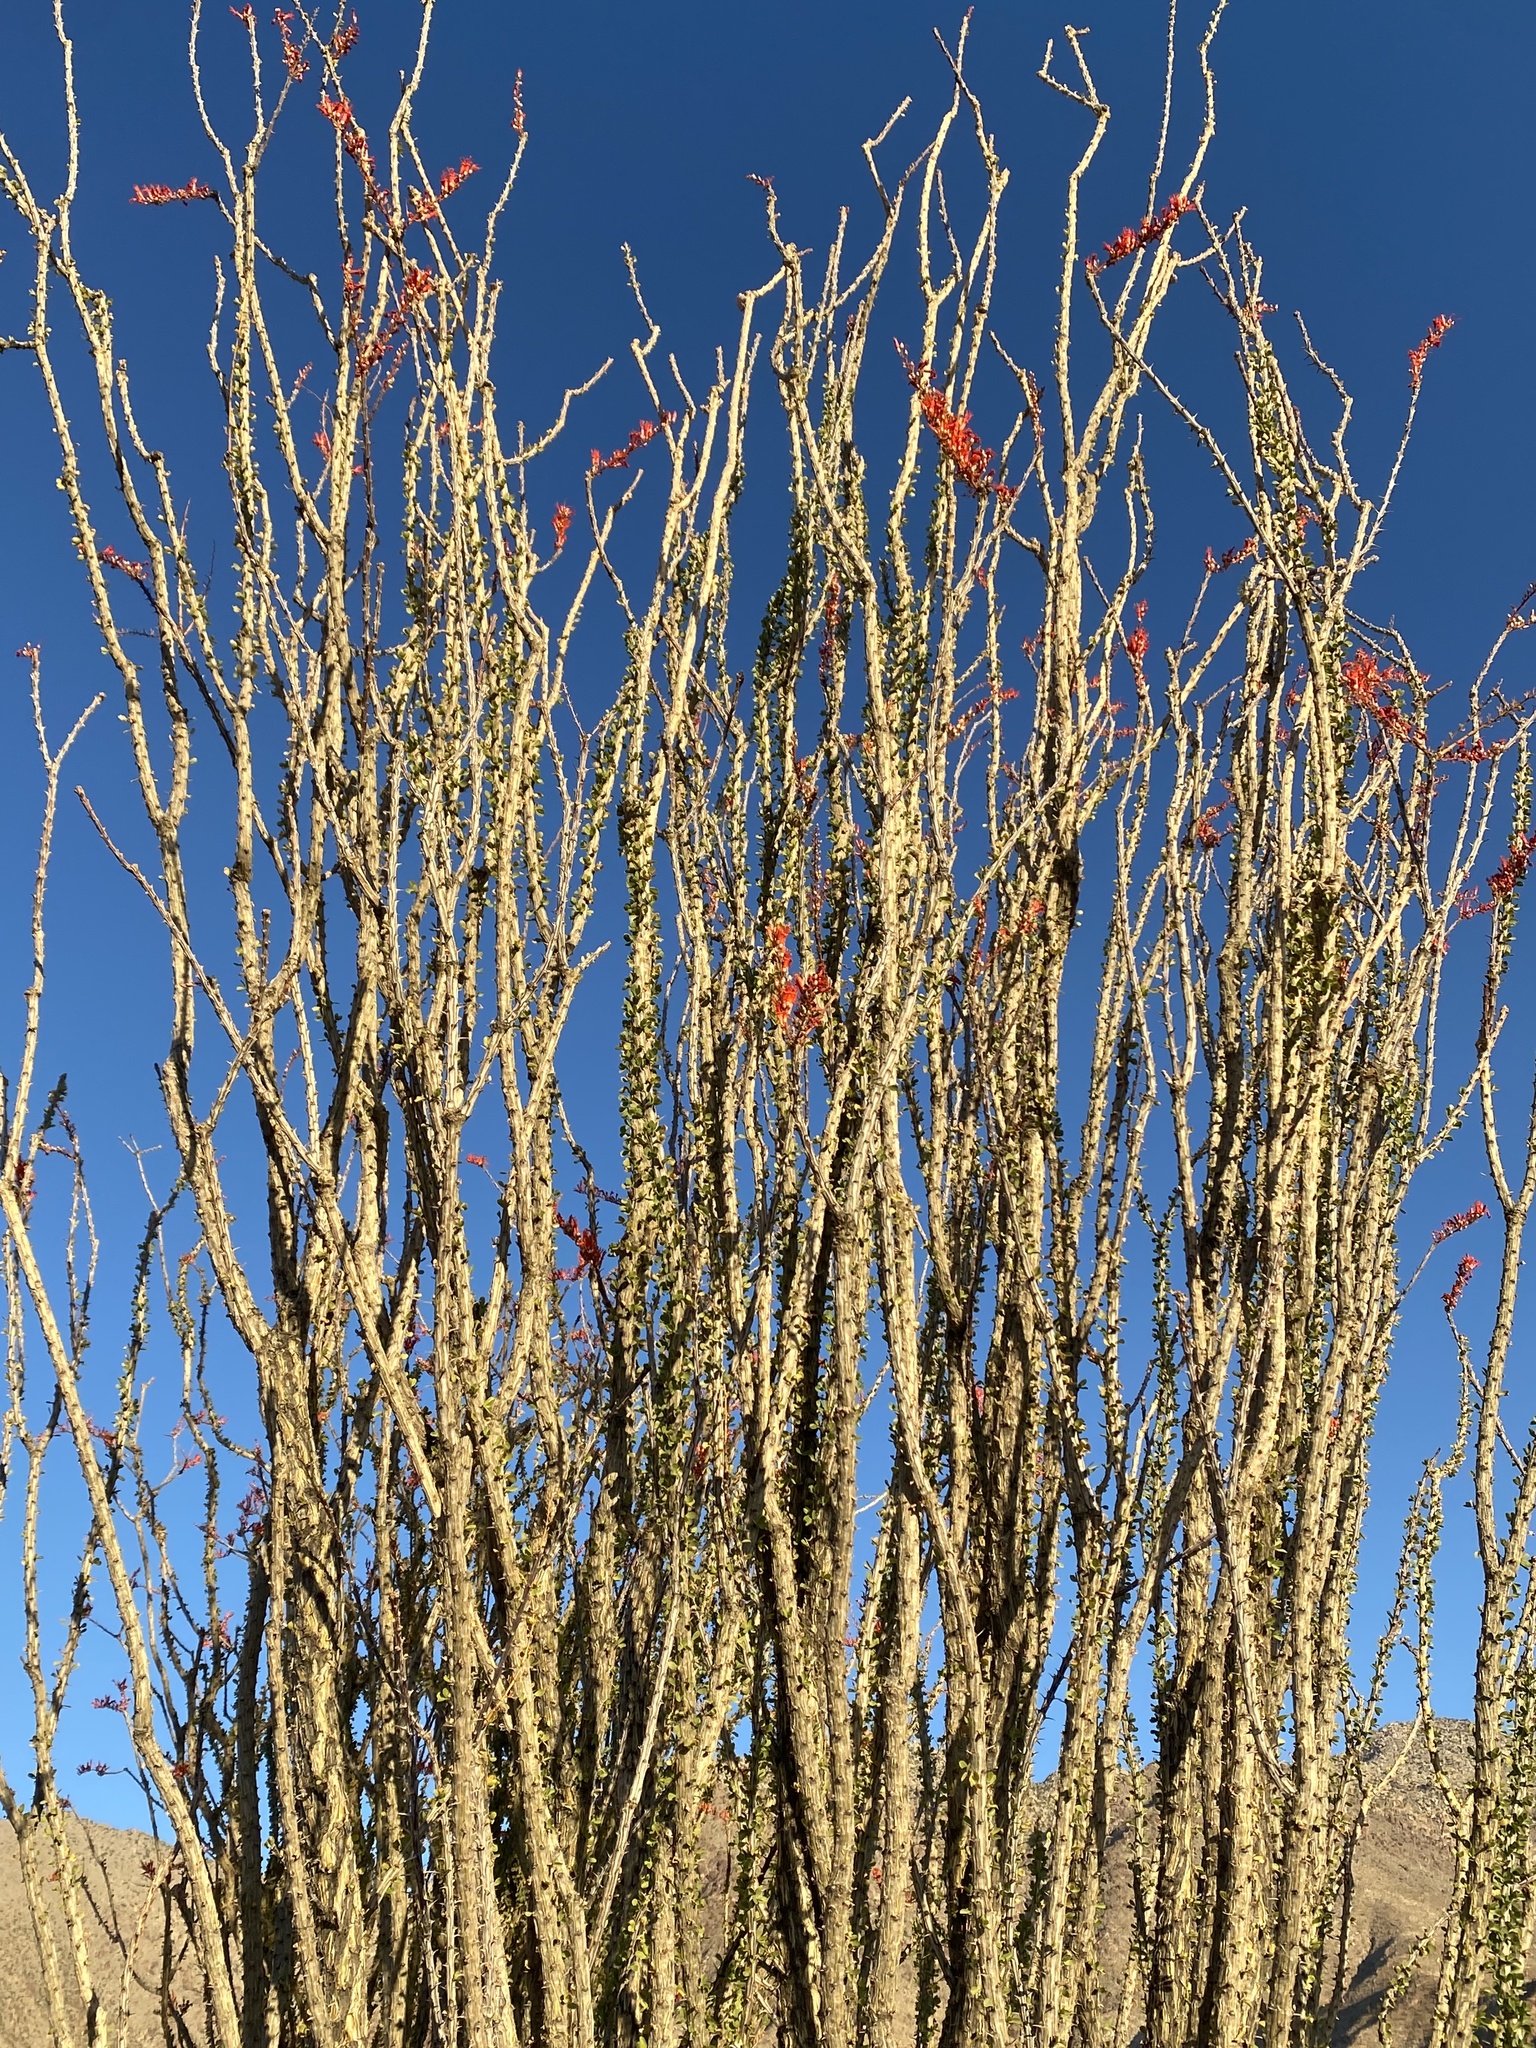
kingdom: Plantae
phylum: Tracheophyta
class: Magnoliopsida
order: Ericales
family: Fouquieriaceae
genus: Fouquieria
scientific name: Fouquieria splendens
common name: Vine-cactus
